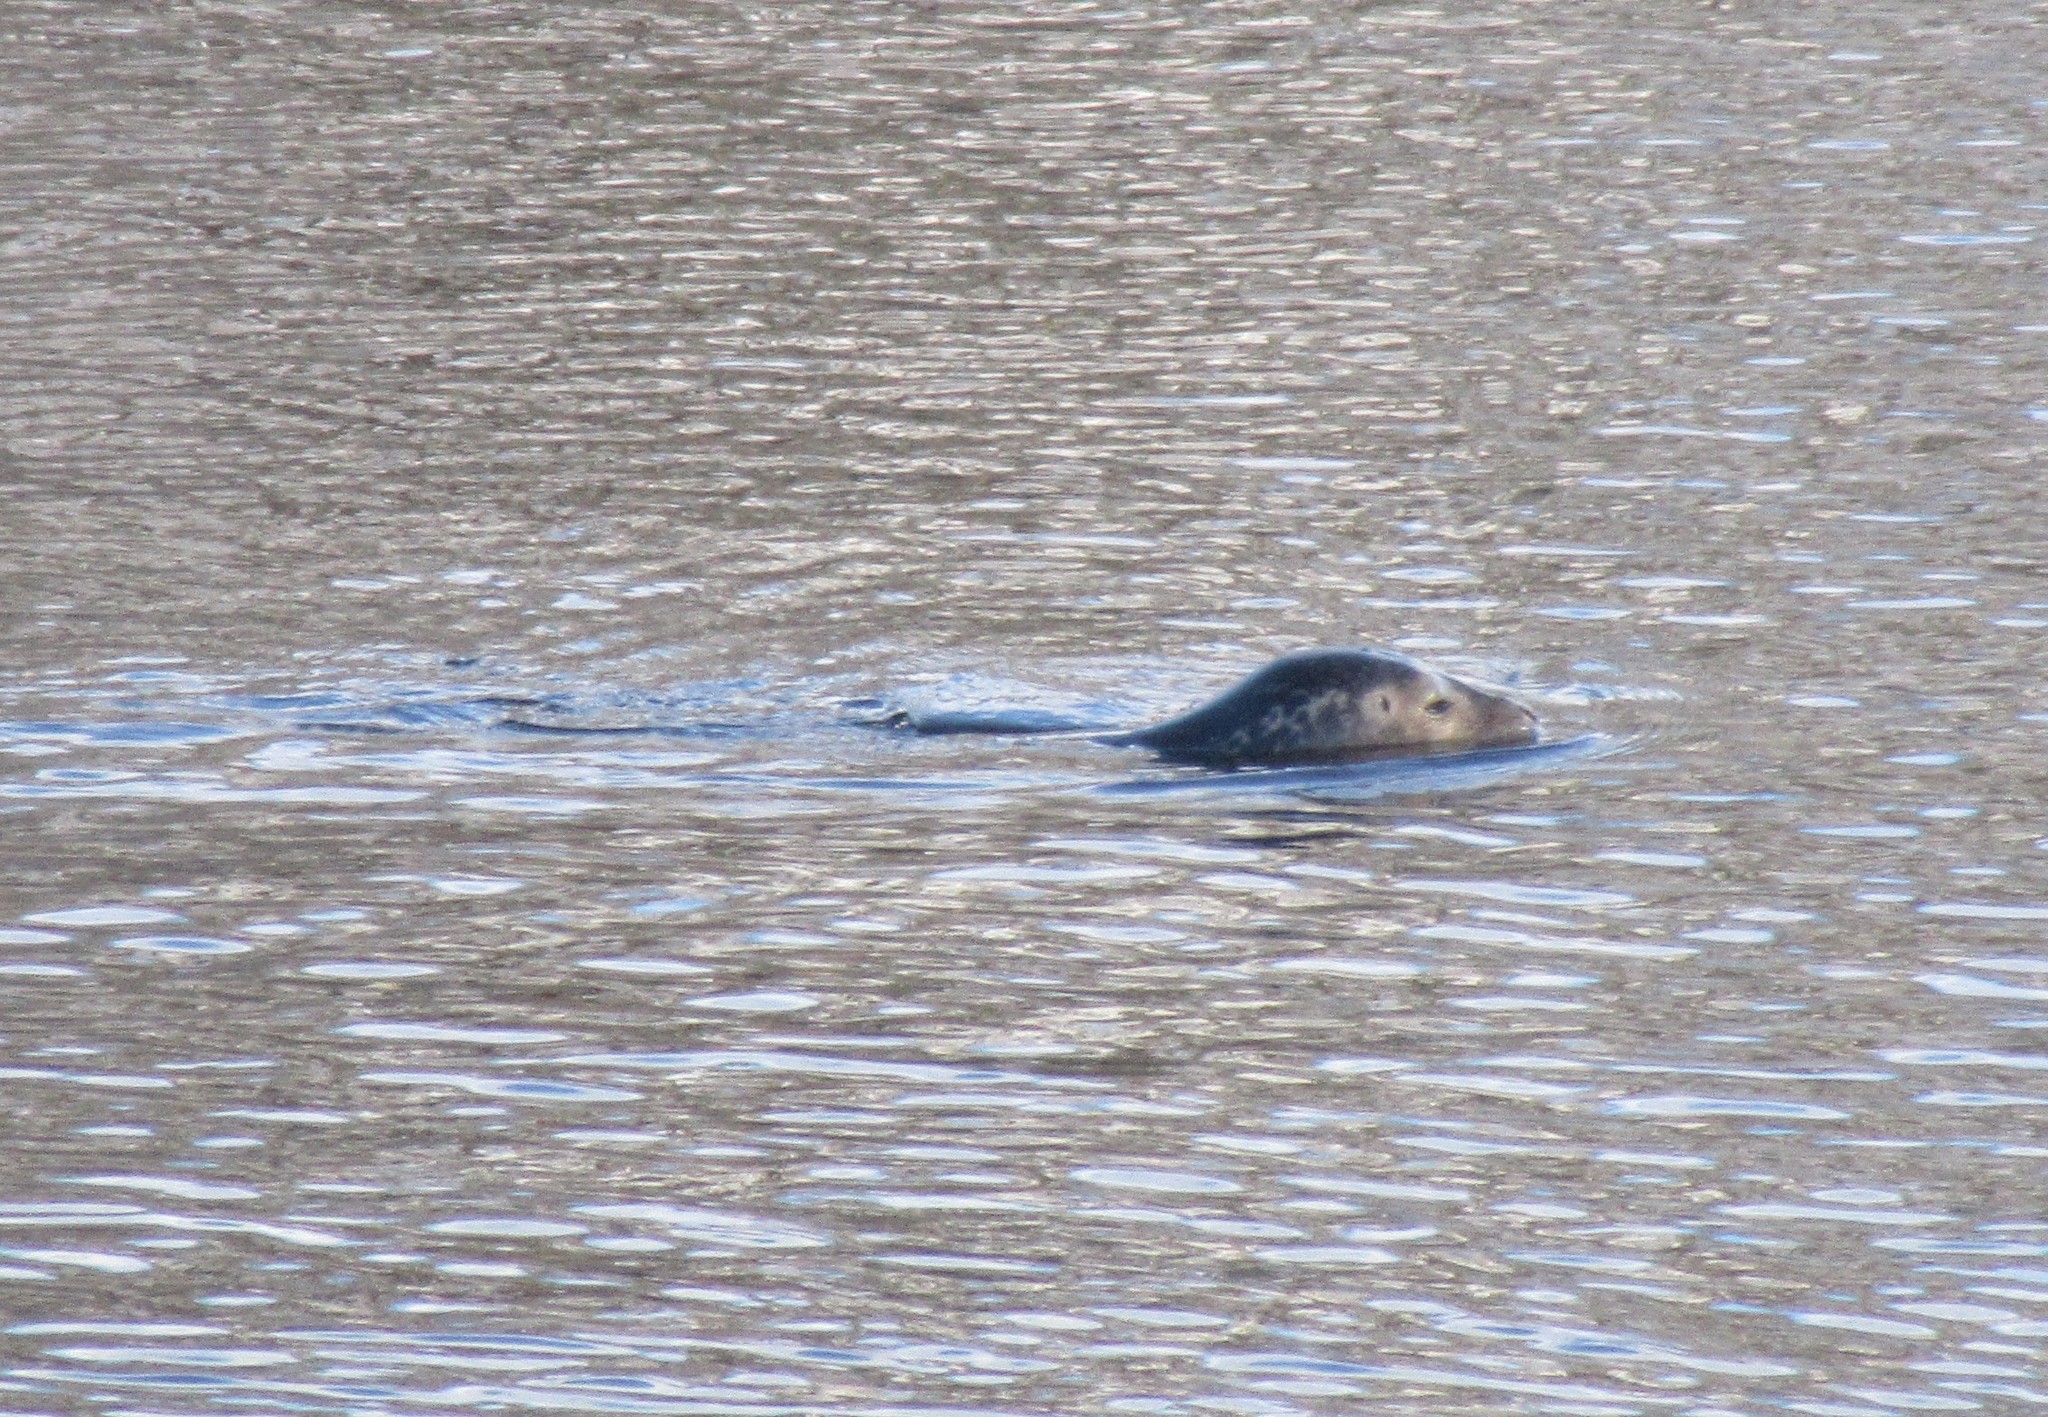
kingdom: Animalia
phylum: Chordata
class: Mammalia
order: Carnivora
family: Phocidae
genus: Phoca
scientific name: Phoca vitulina
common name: Harbor seal
